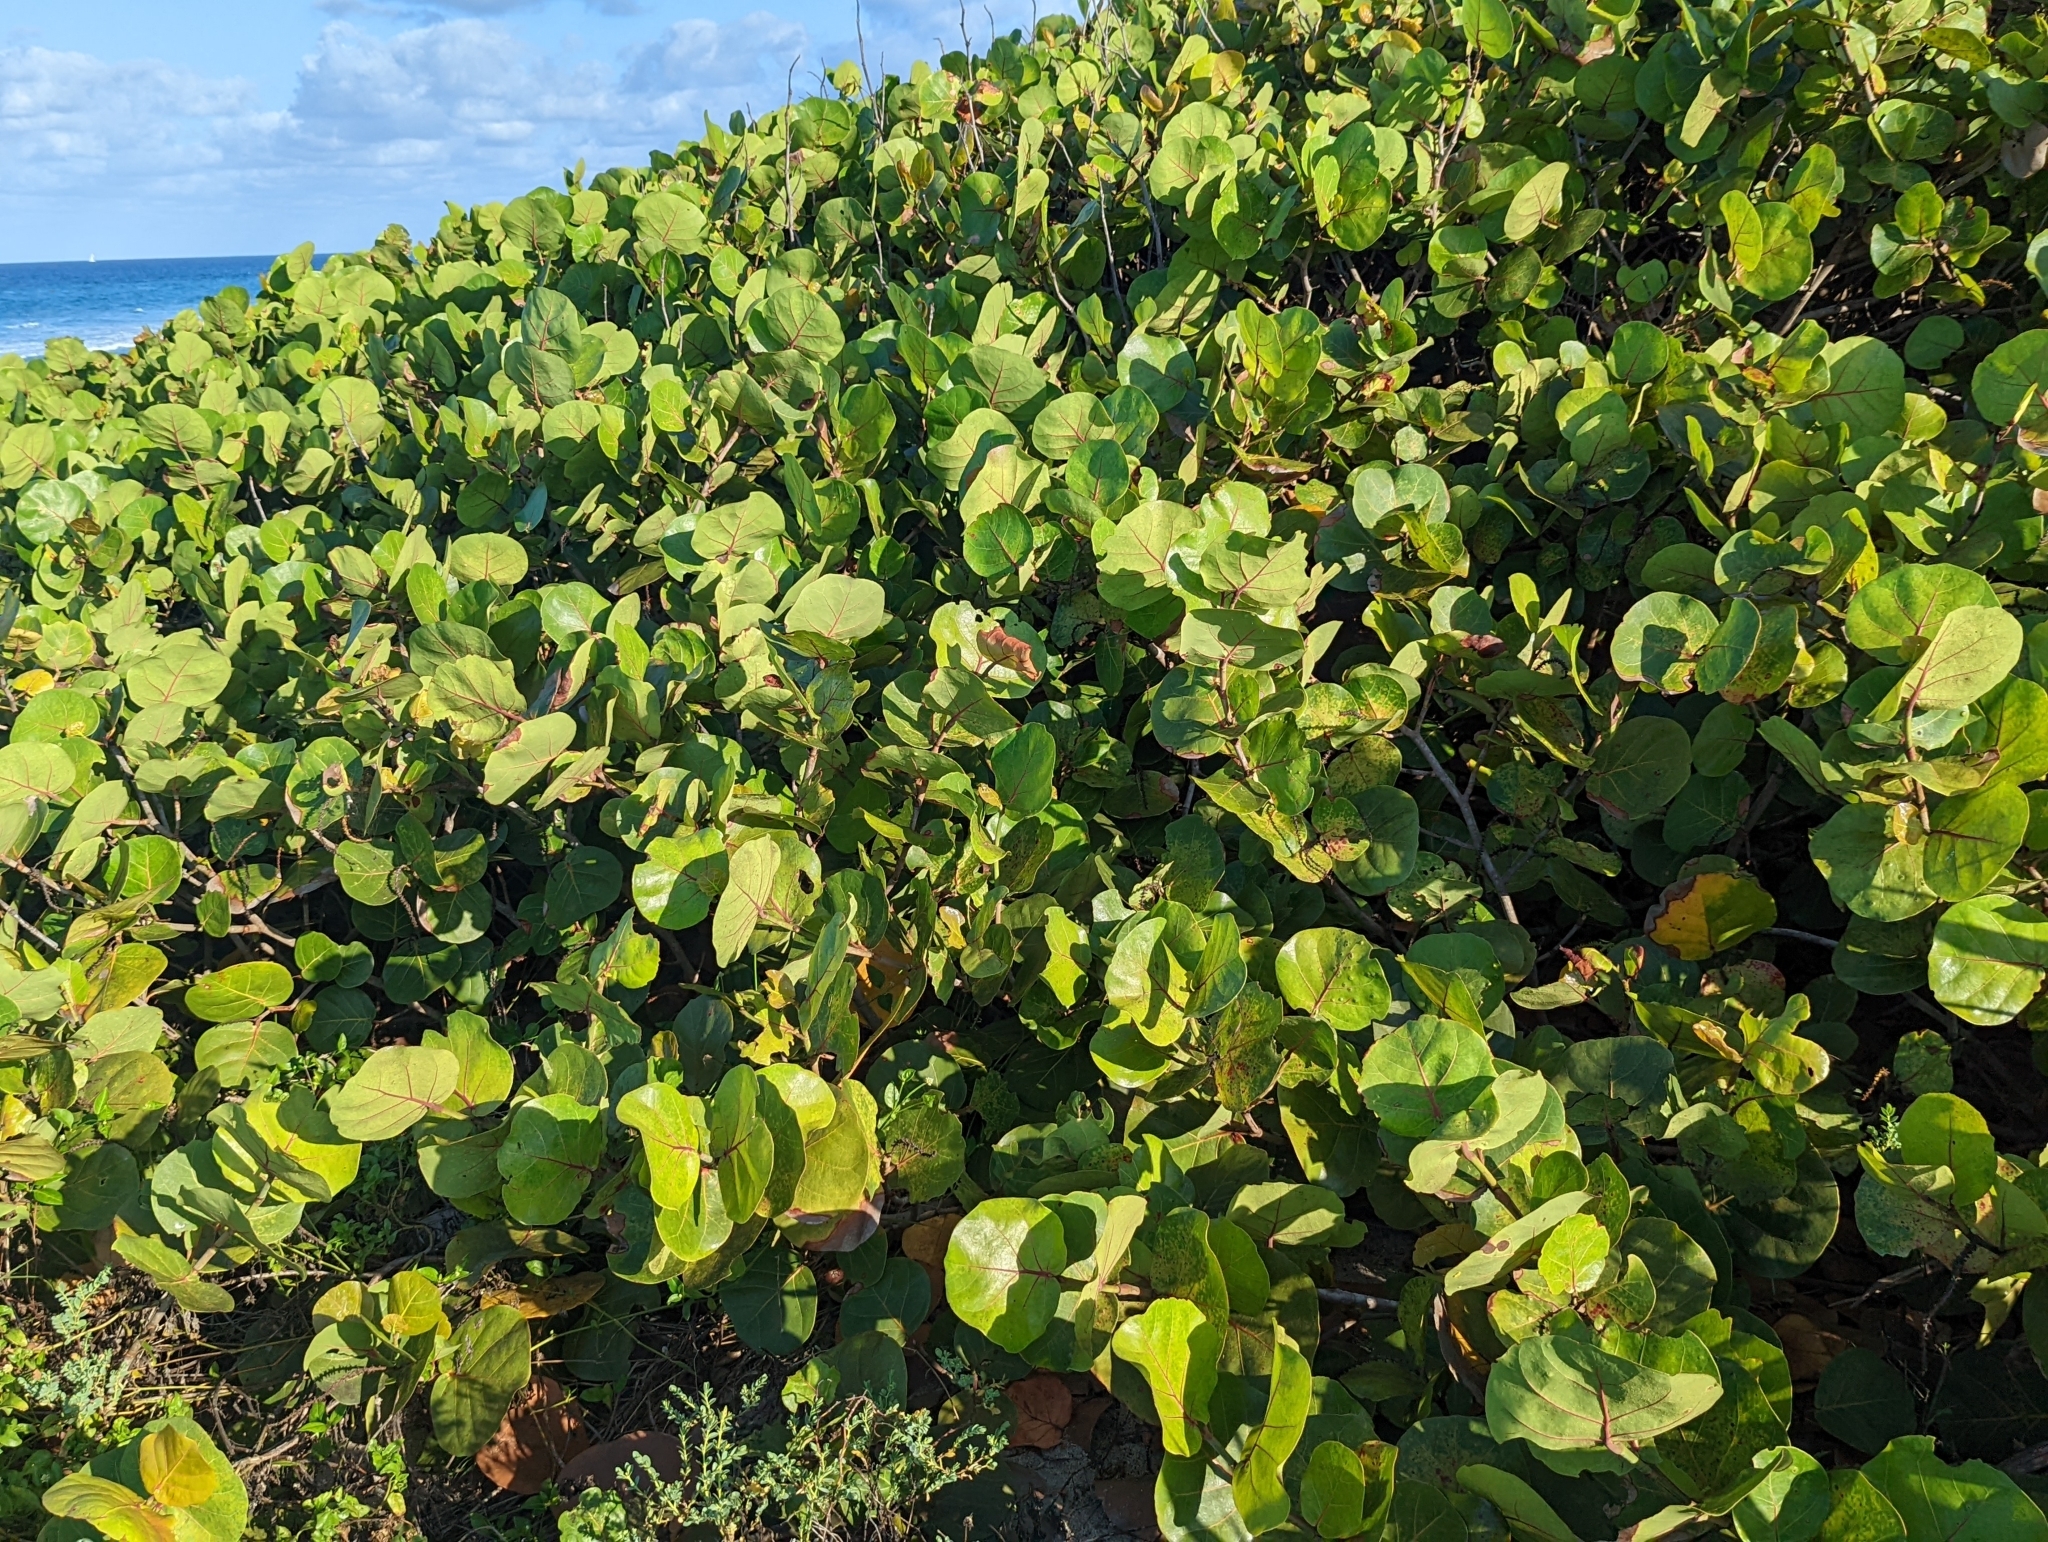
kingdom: Plantae
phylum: Tracheophyta
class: Magnoliopsida
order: Caryophyllales
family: Polygonaceae
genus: Coccoloba
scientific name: Coccoloba uvifera
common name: Seagrape
